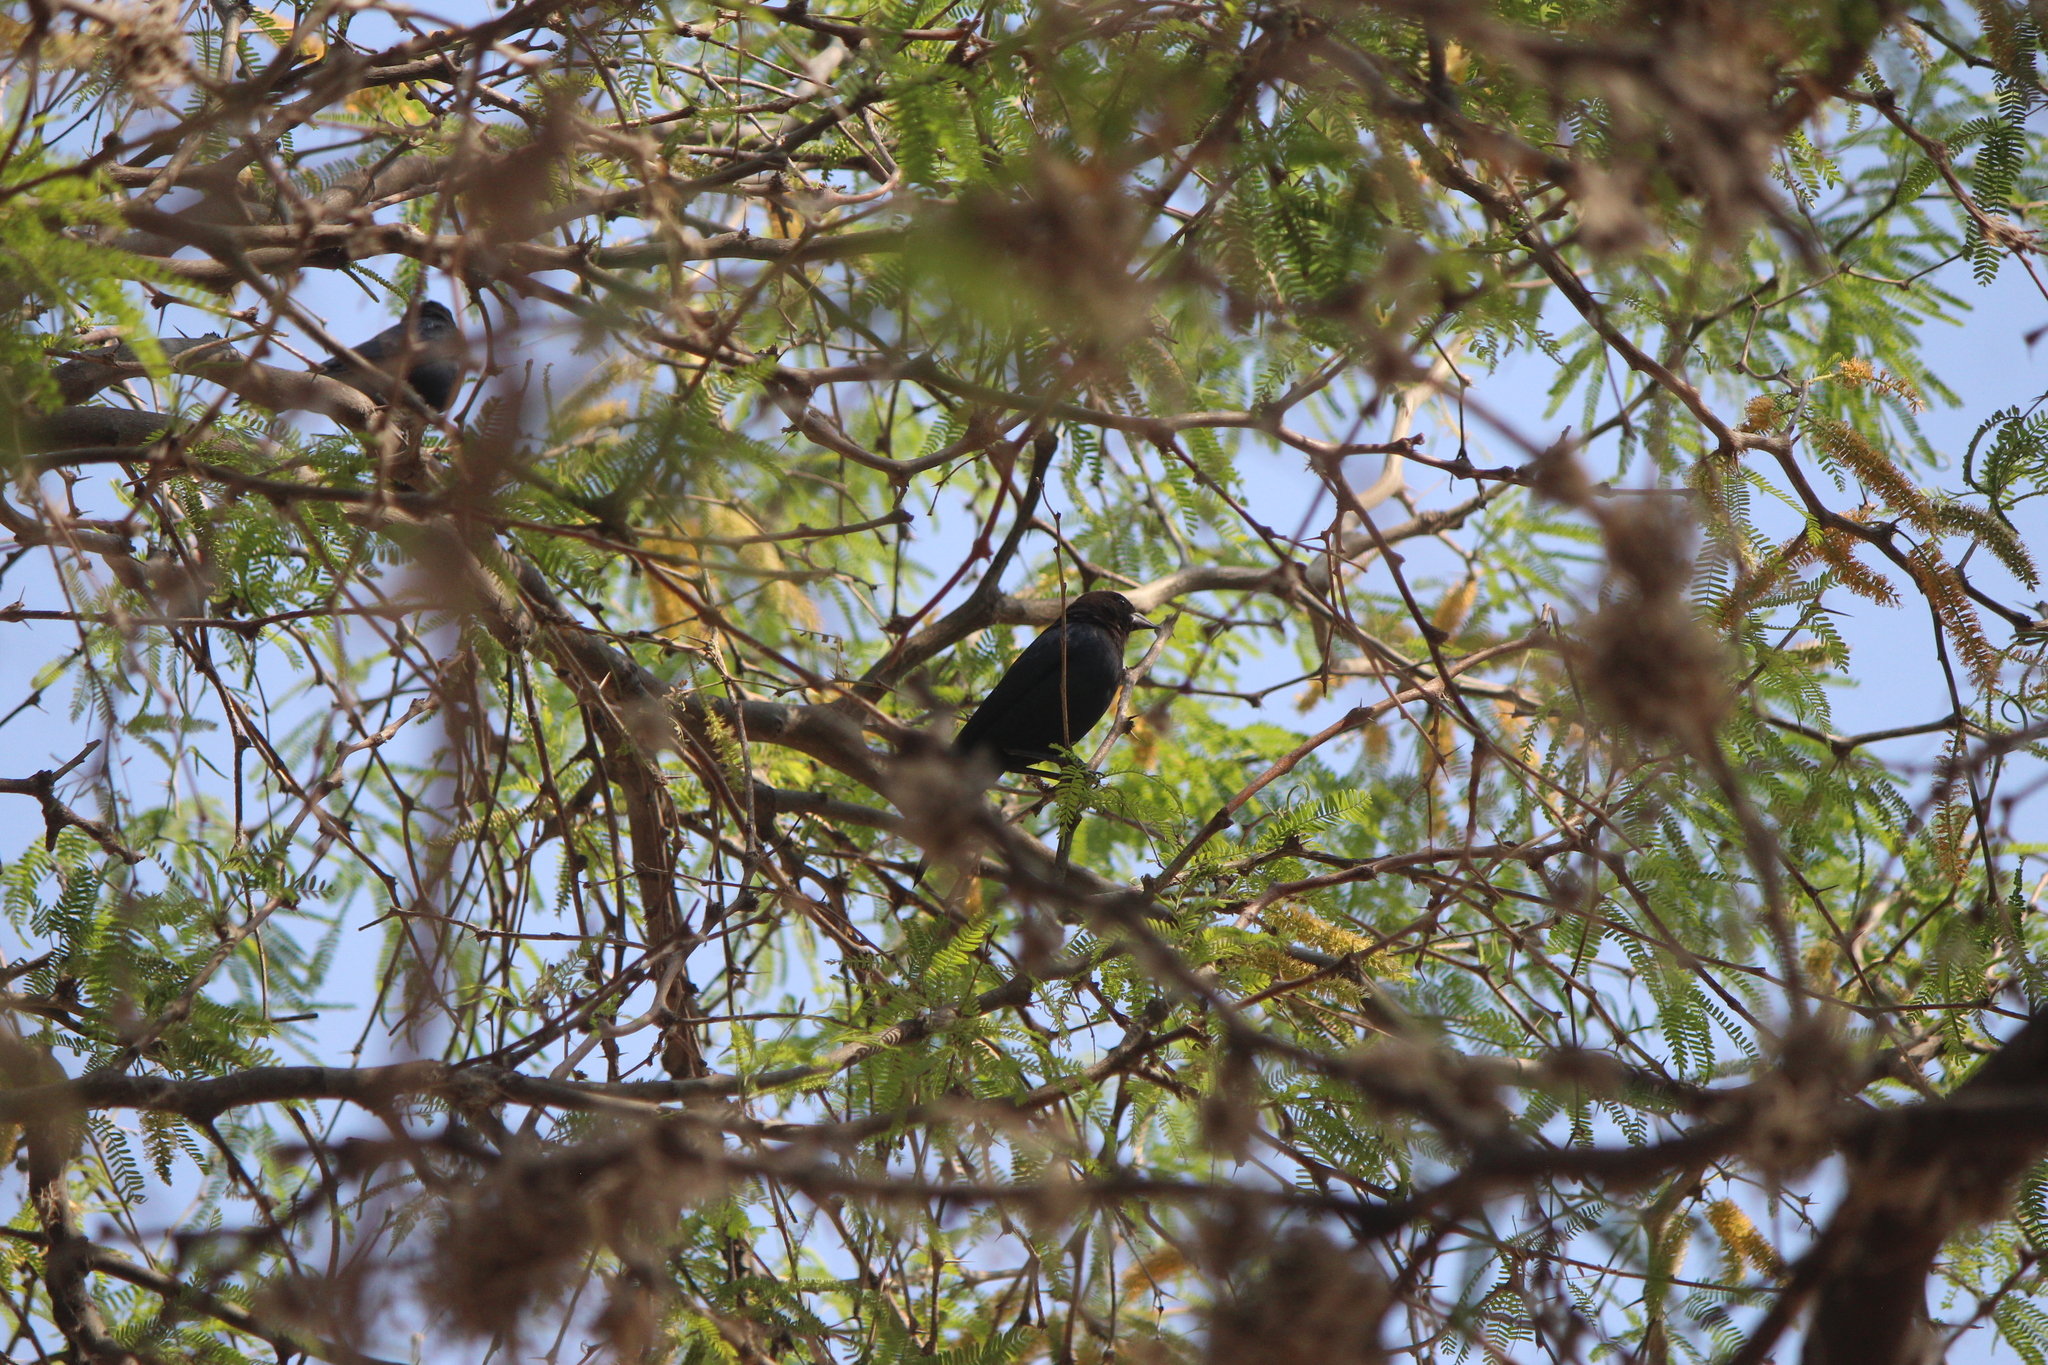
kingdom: Animalia
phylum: Chordata
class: Aves
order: Passeriformes
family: Icteridae
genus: Molothrus
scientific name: Molothrus ater
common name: Brown-headed cowbird
